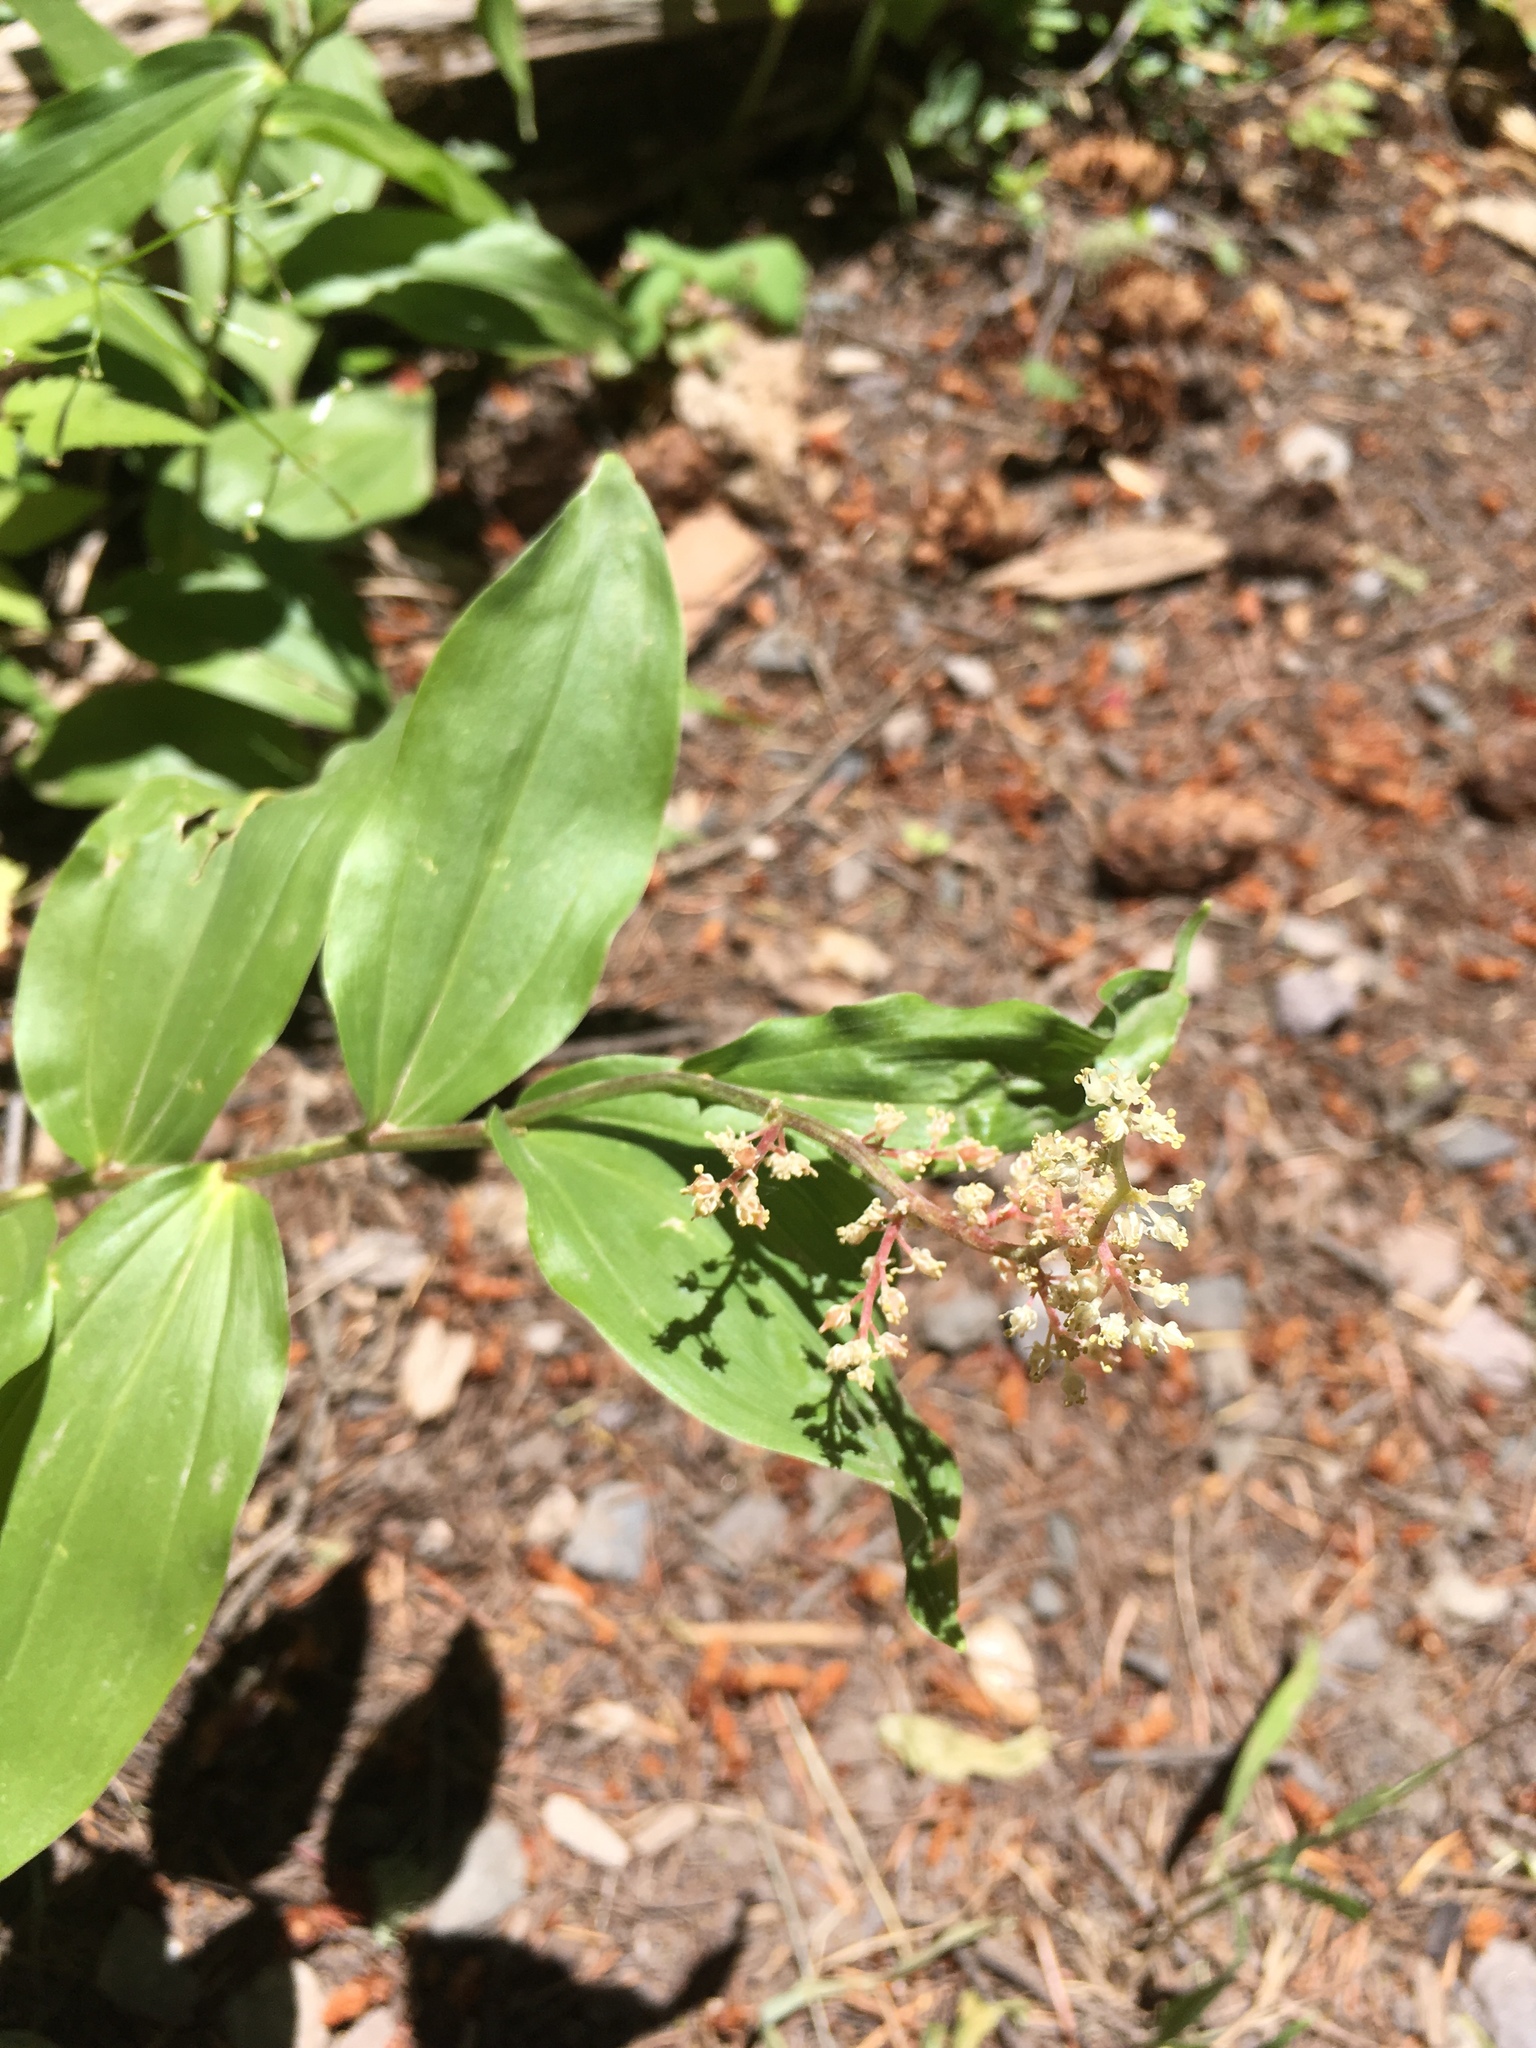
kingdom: Plantae
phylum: Tracheophyta
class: Liliopsida
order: Asparagales
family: Asparagaceae
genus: Maianthemum
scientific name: Maianthemum racemosum
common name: False spikenard
